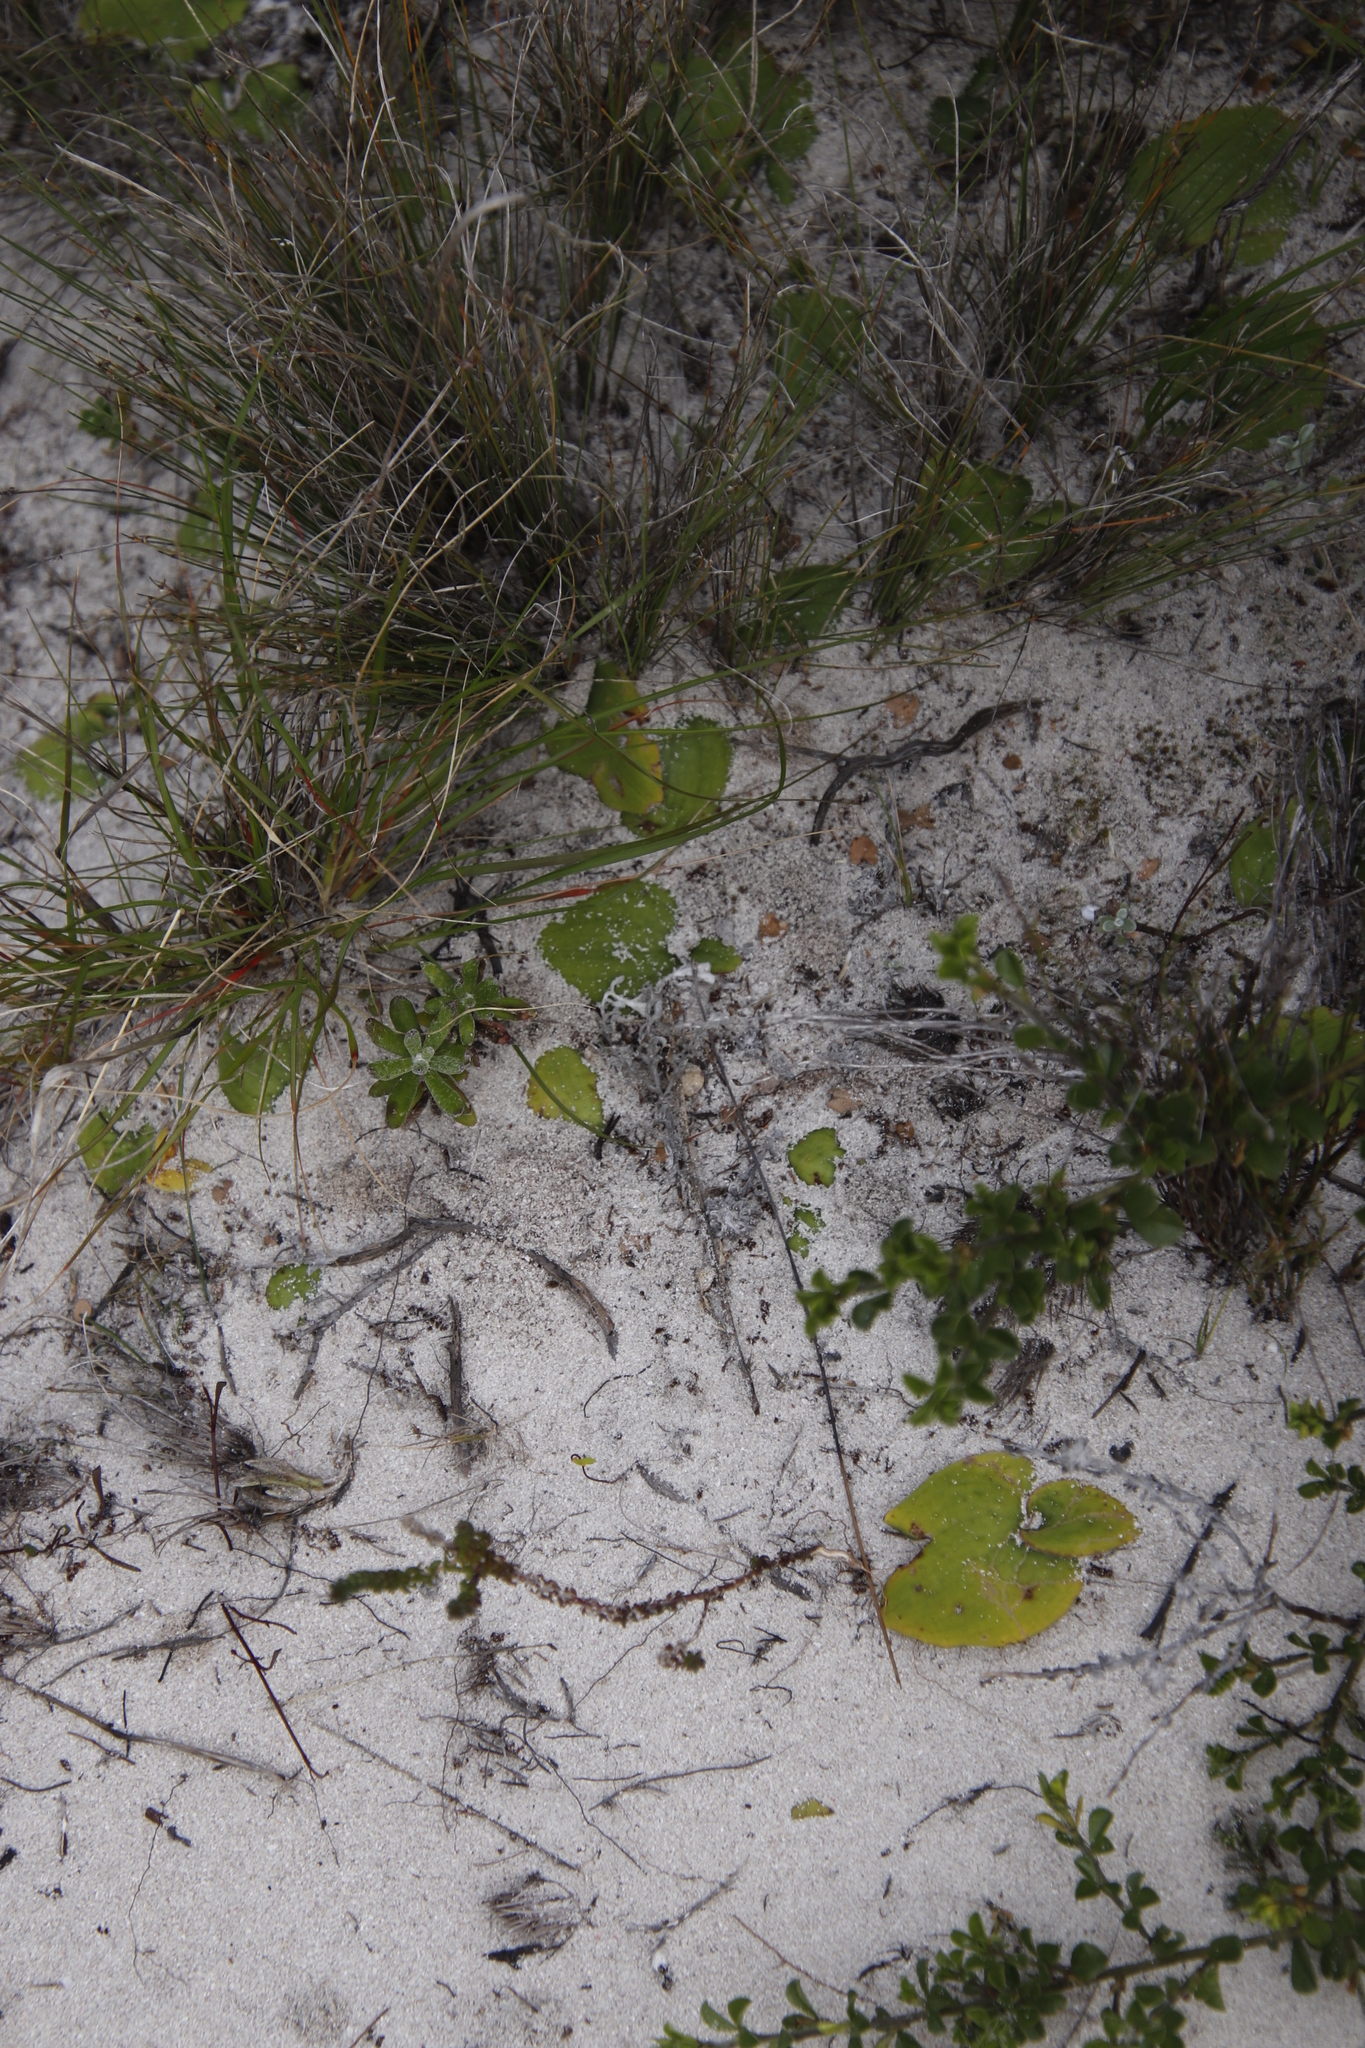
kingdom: Plantae
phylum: Tracheophyta
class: Liliopsida
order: Asparagales
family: Orchidaceae
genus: Satyrium
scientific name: Satyrium carneum
